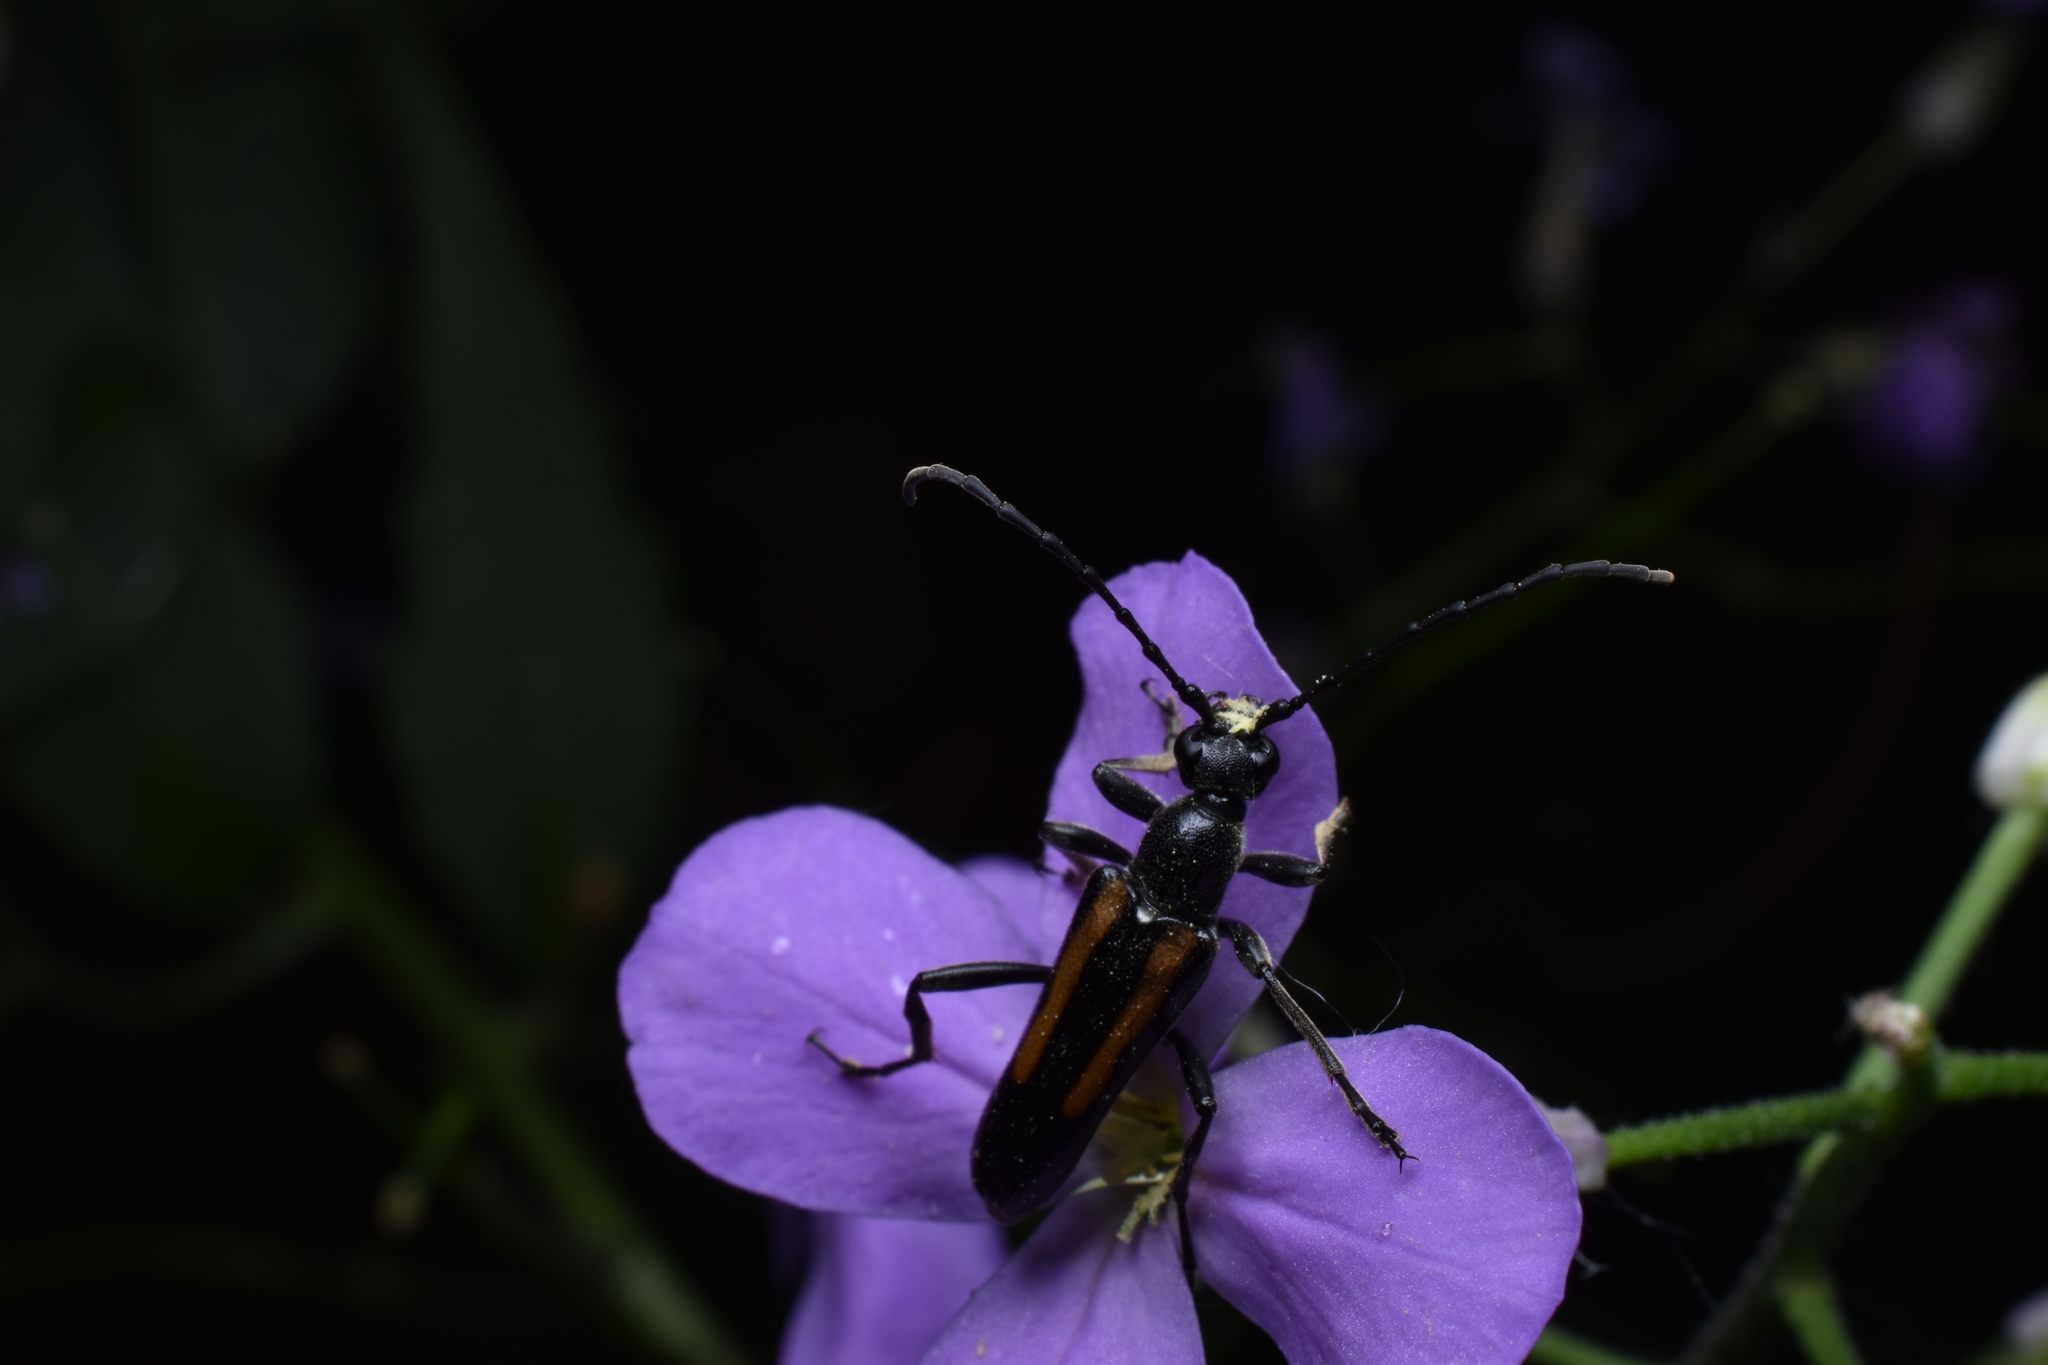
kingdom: Animalia
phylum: Arthropoda
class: Insecta
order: Coleoptera
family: Cerambycidae
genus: Strangalepta
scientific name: Strangalepta abbreviata
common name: Strangalepta flower longhorn beetle
